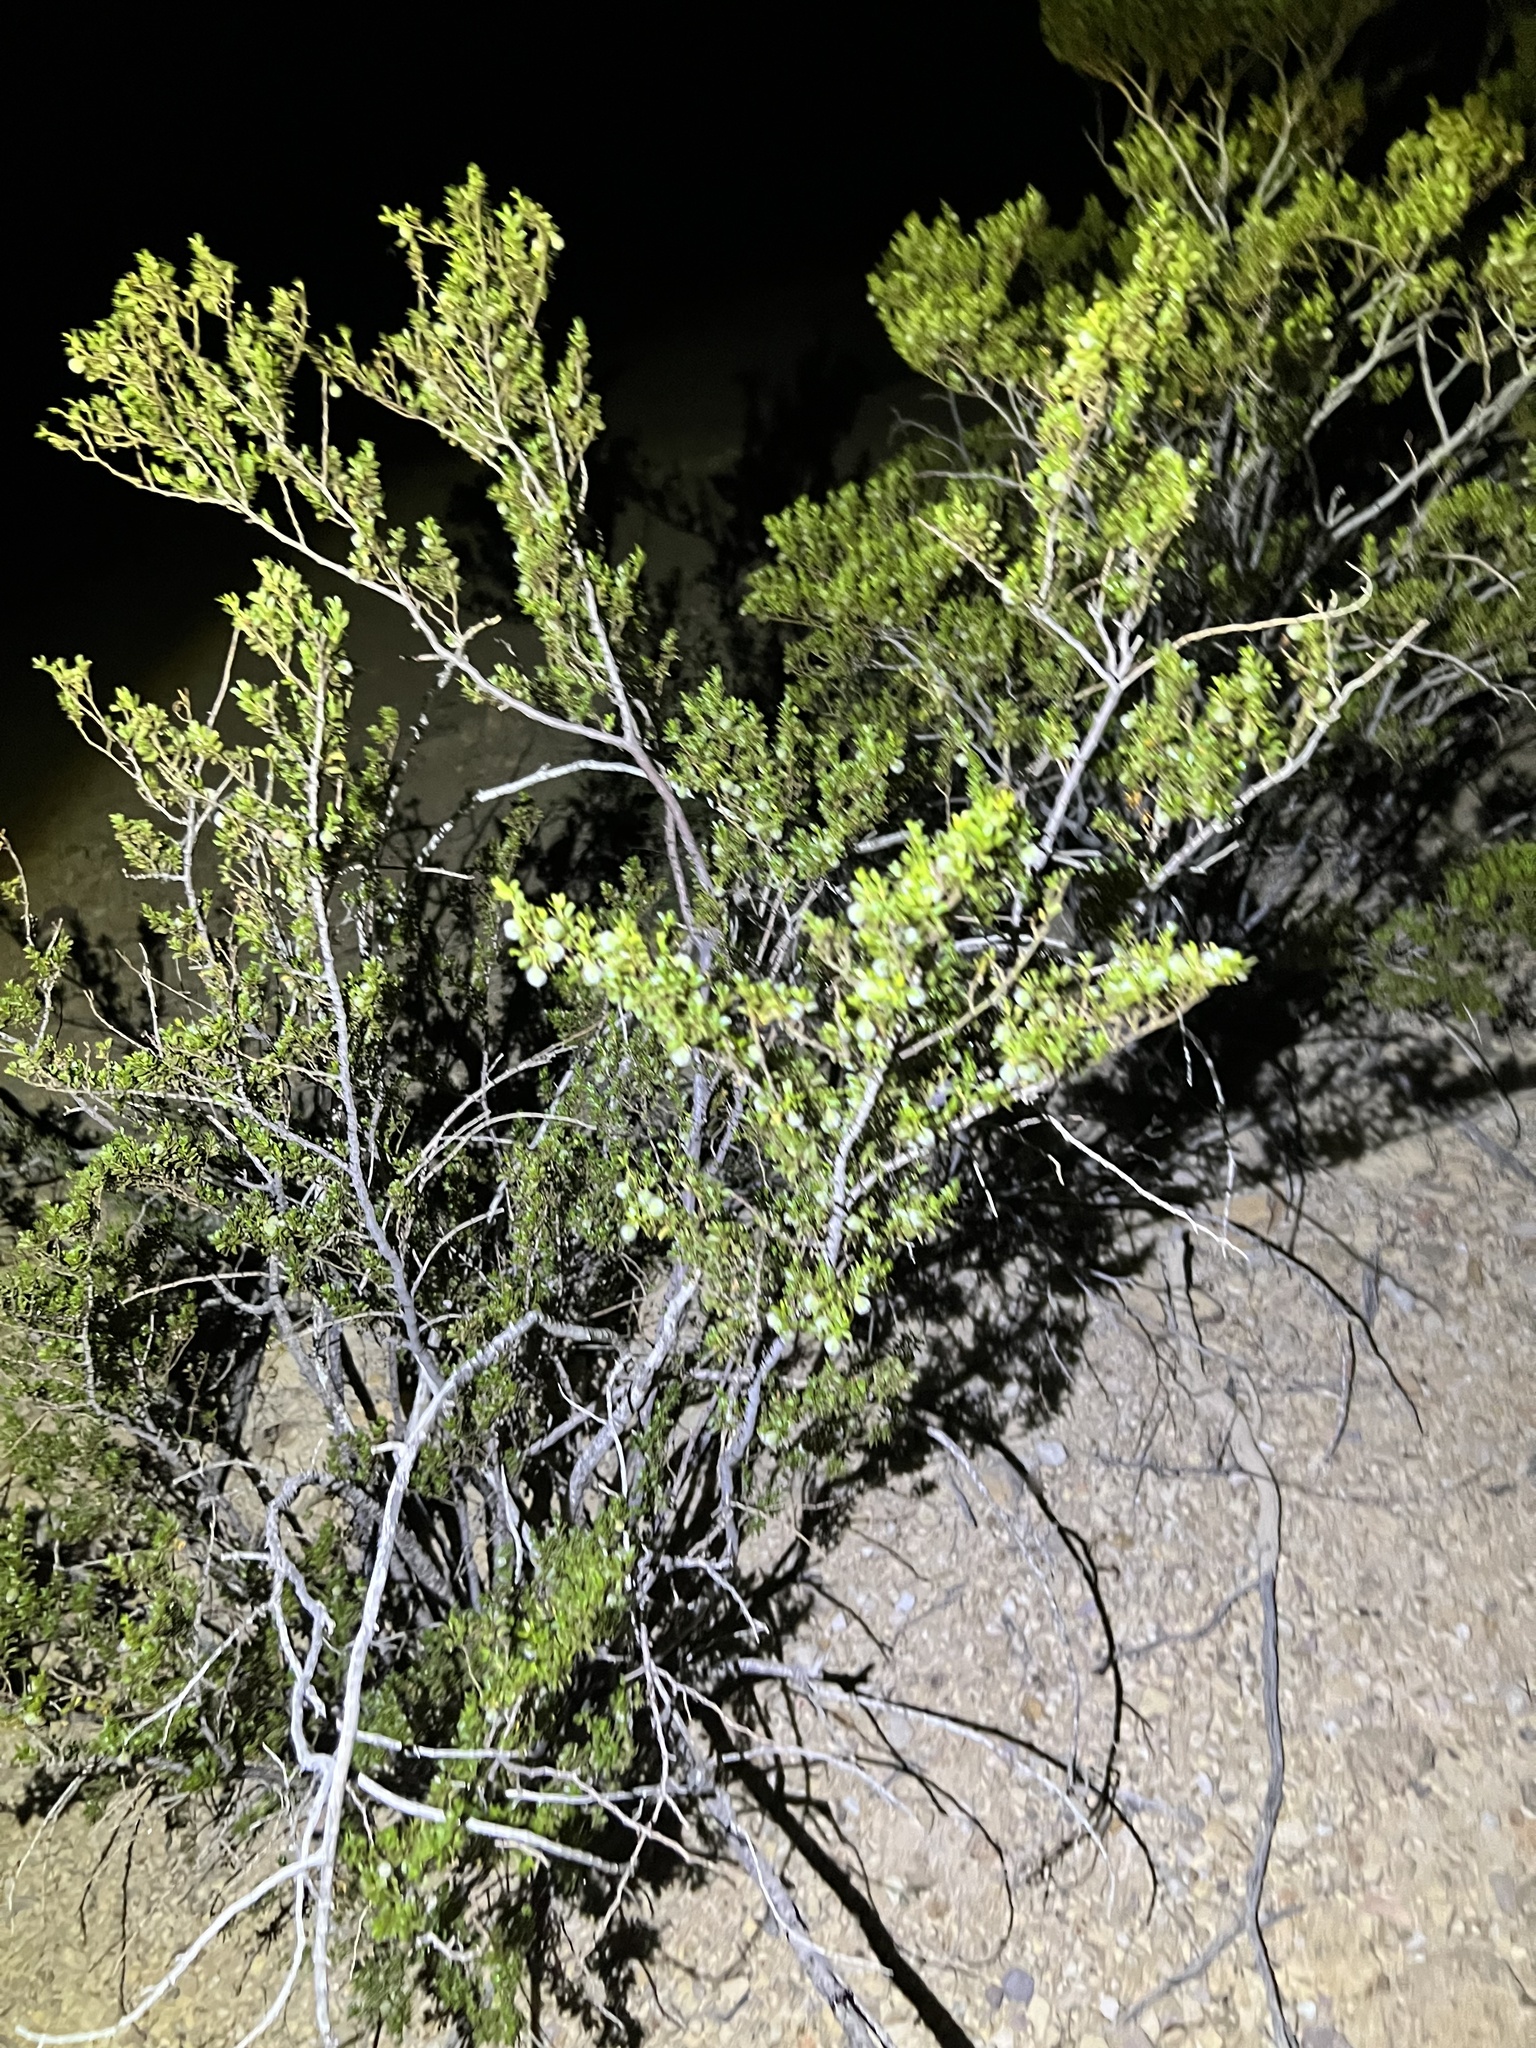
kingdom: Plantae
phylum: Tracheophyta
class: Magnoliopsida
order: Zygophyllales
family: Zygophyllaceae
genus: Larrea
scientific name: Larrea tridentata
